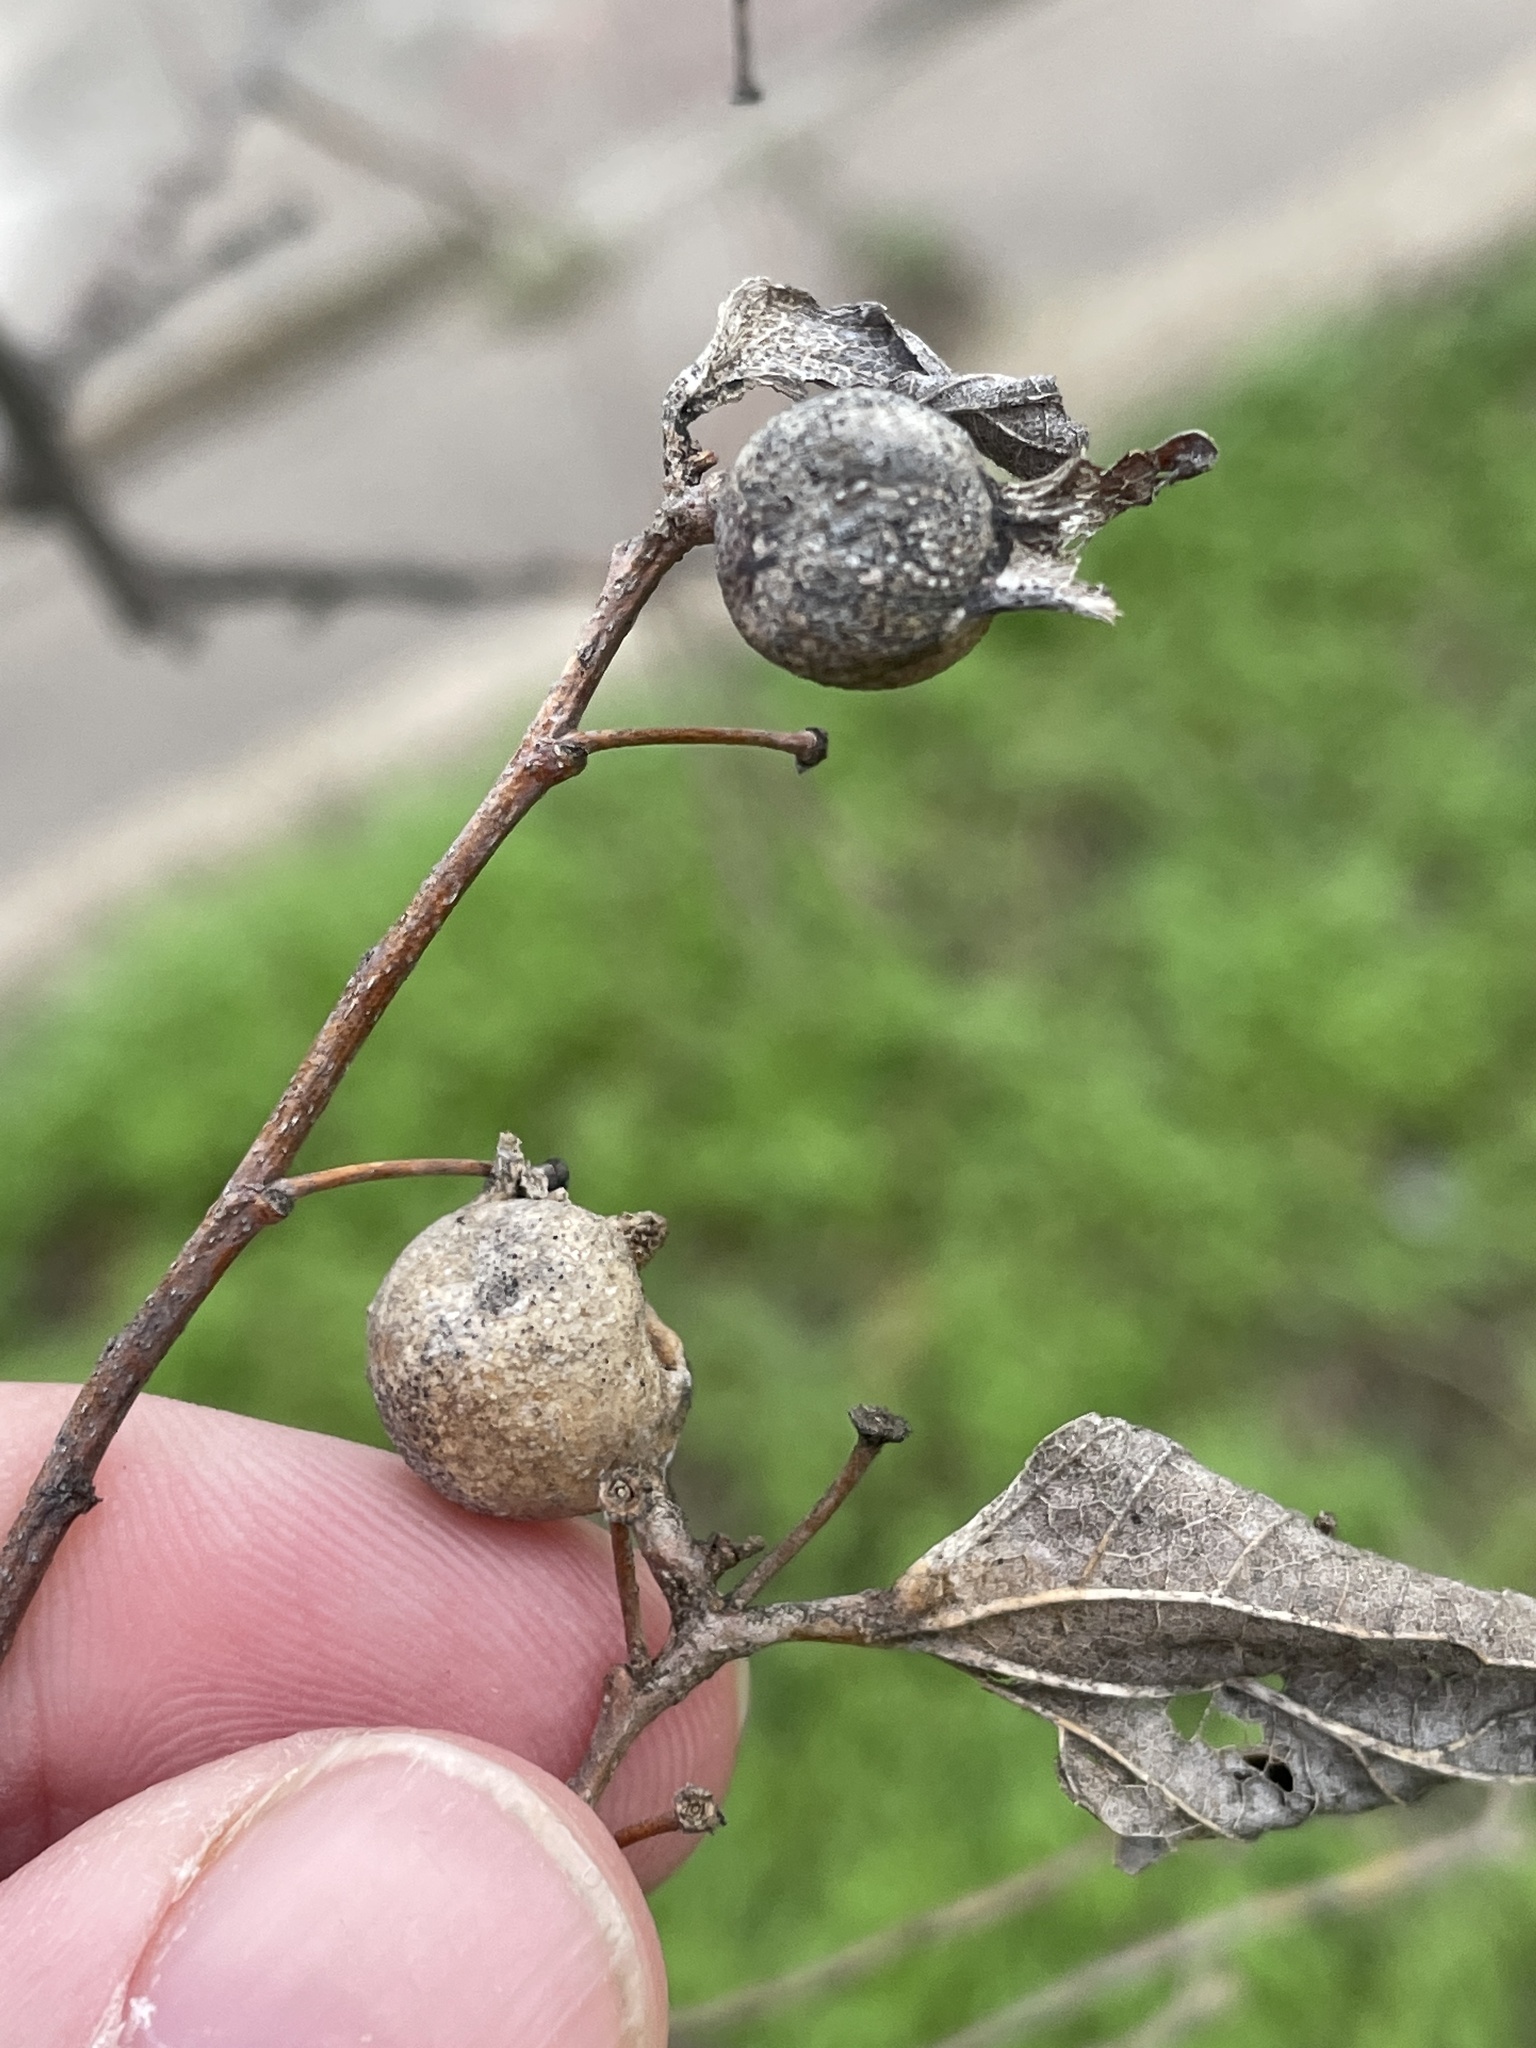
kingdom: Animalia
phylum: Arthropoda
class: Insecta
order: Hemiptera
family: Aphalaridae
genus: Pachypsylla
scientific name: Pachypsylla venusta
